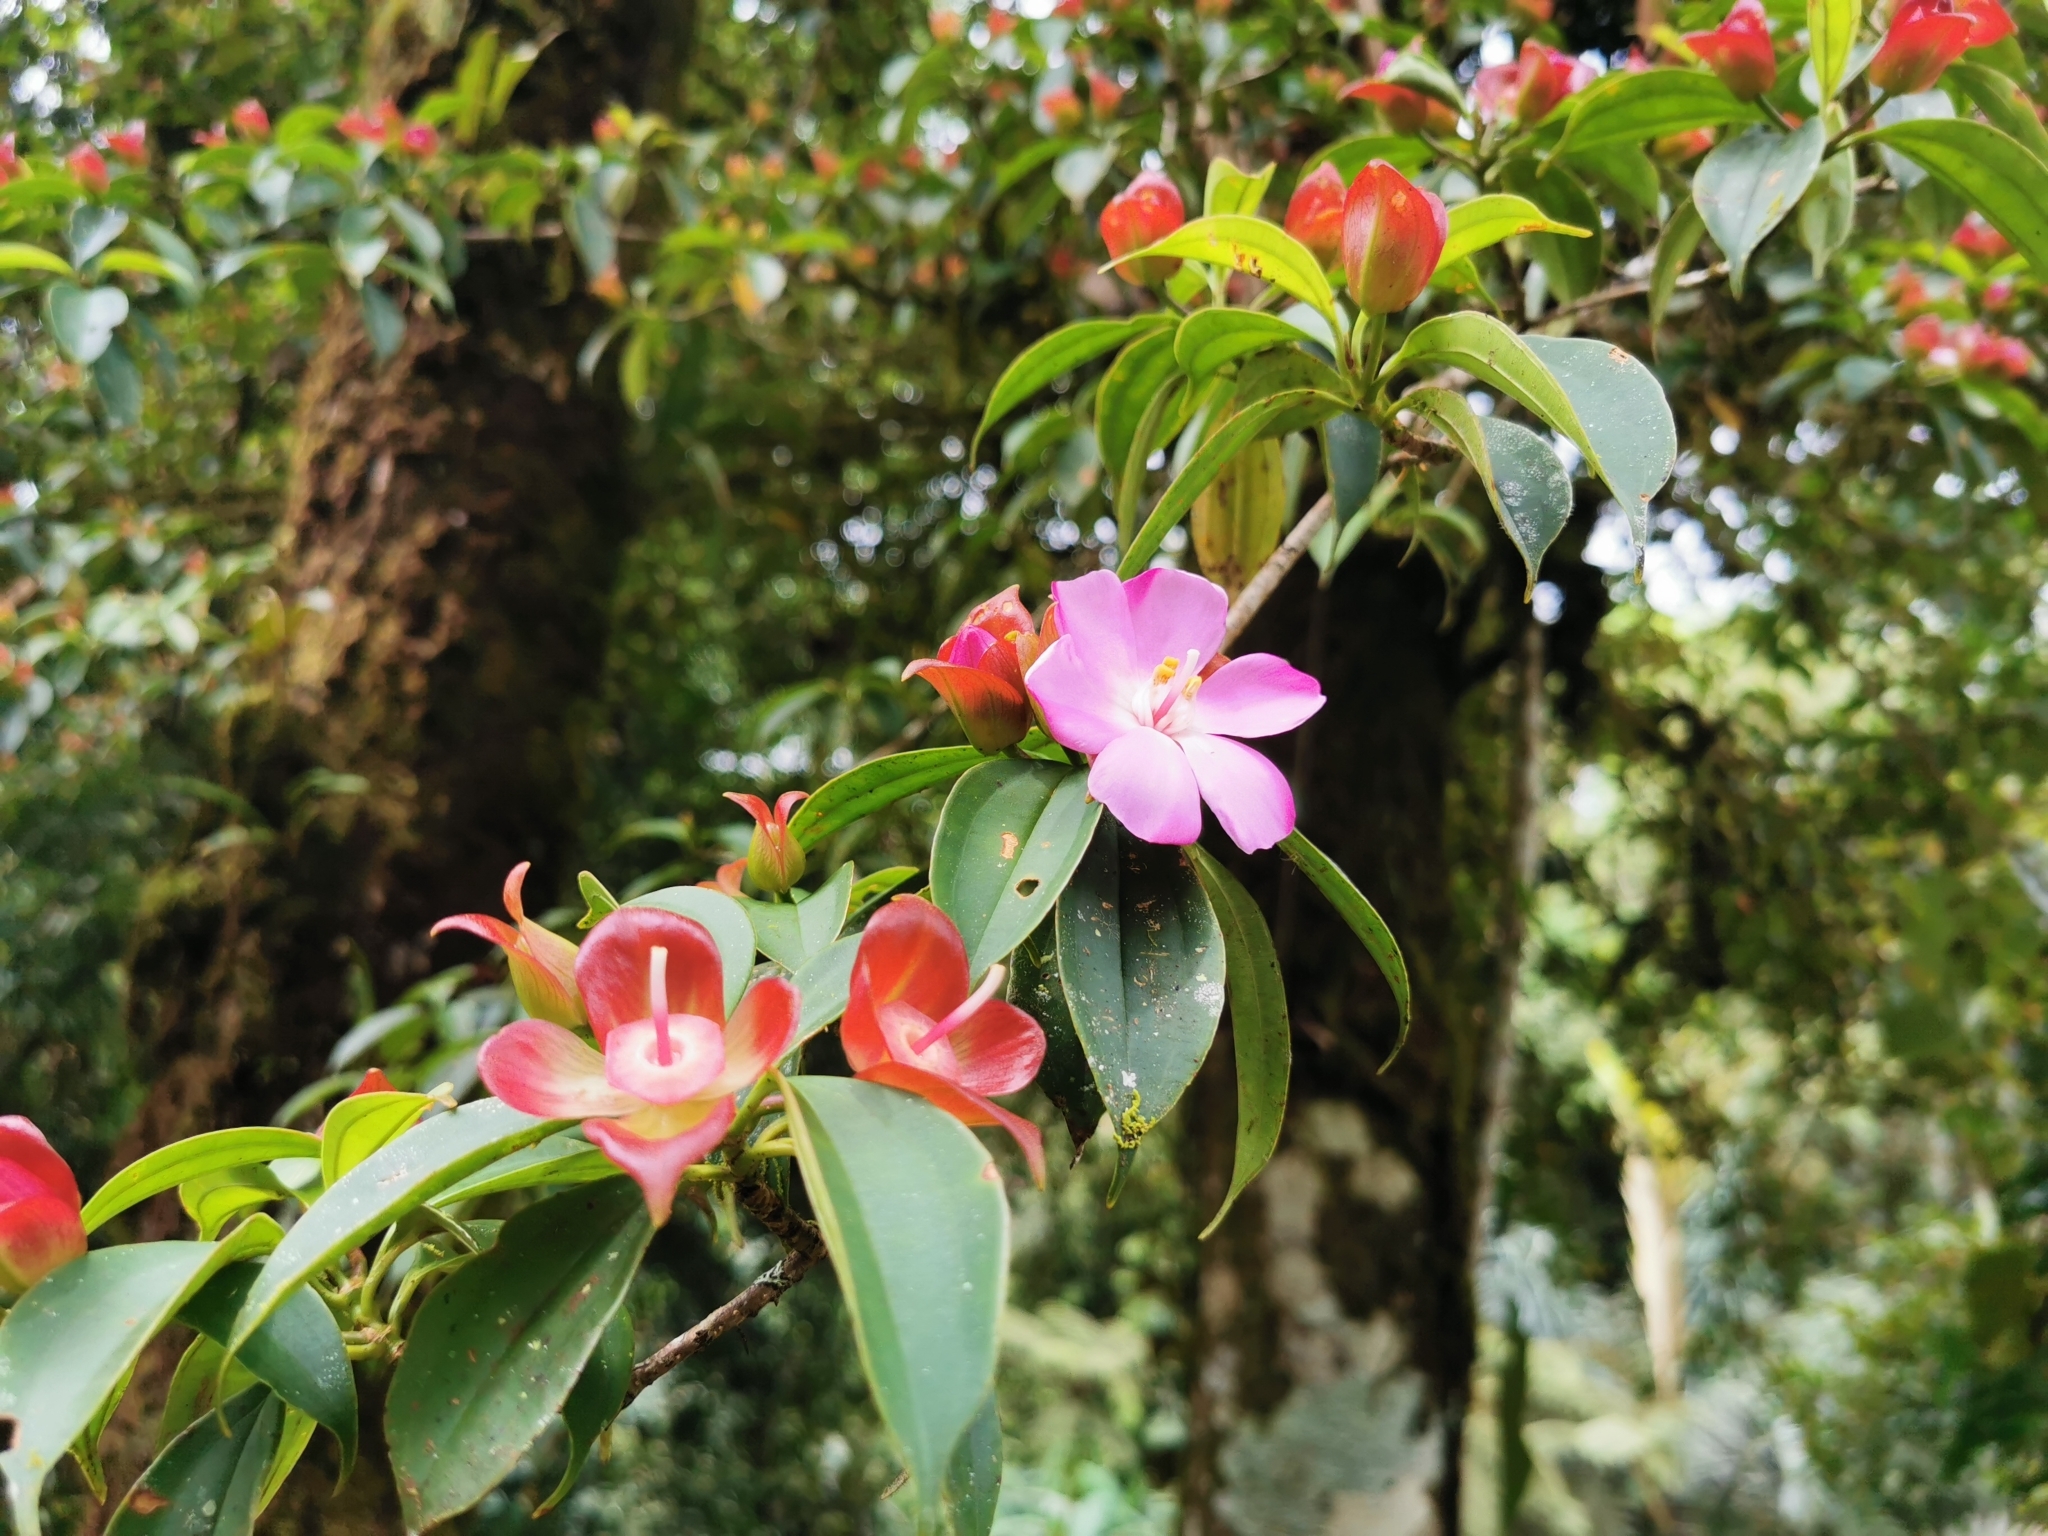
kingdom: Plantae
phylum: Tracheophyta
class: Magnoliopsida
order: Myrtales
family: Melastomataceae
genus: Blakea
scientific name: Blakea litoralis
